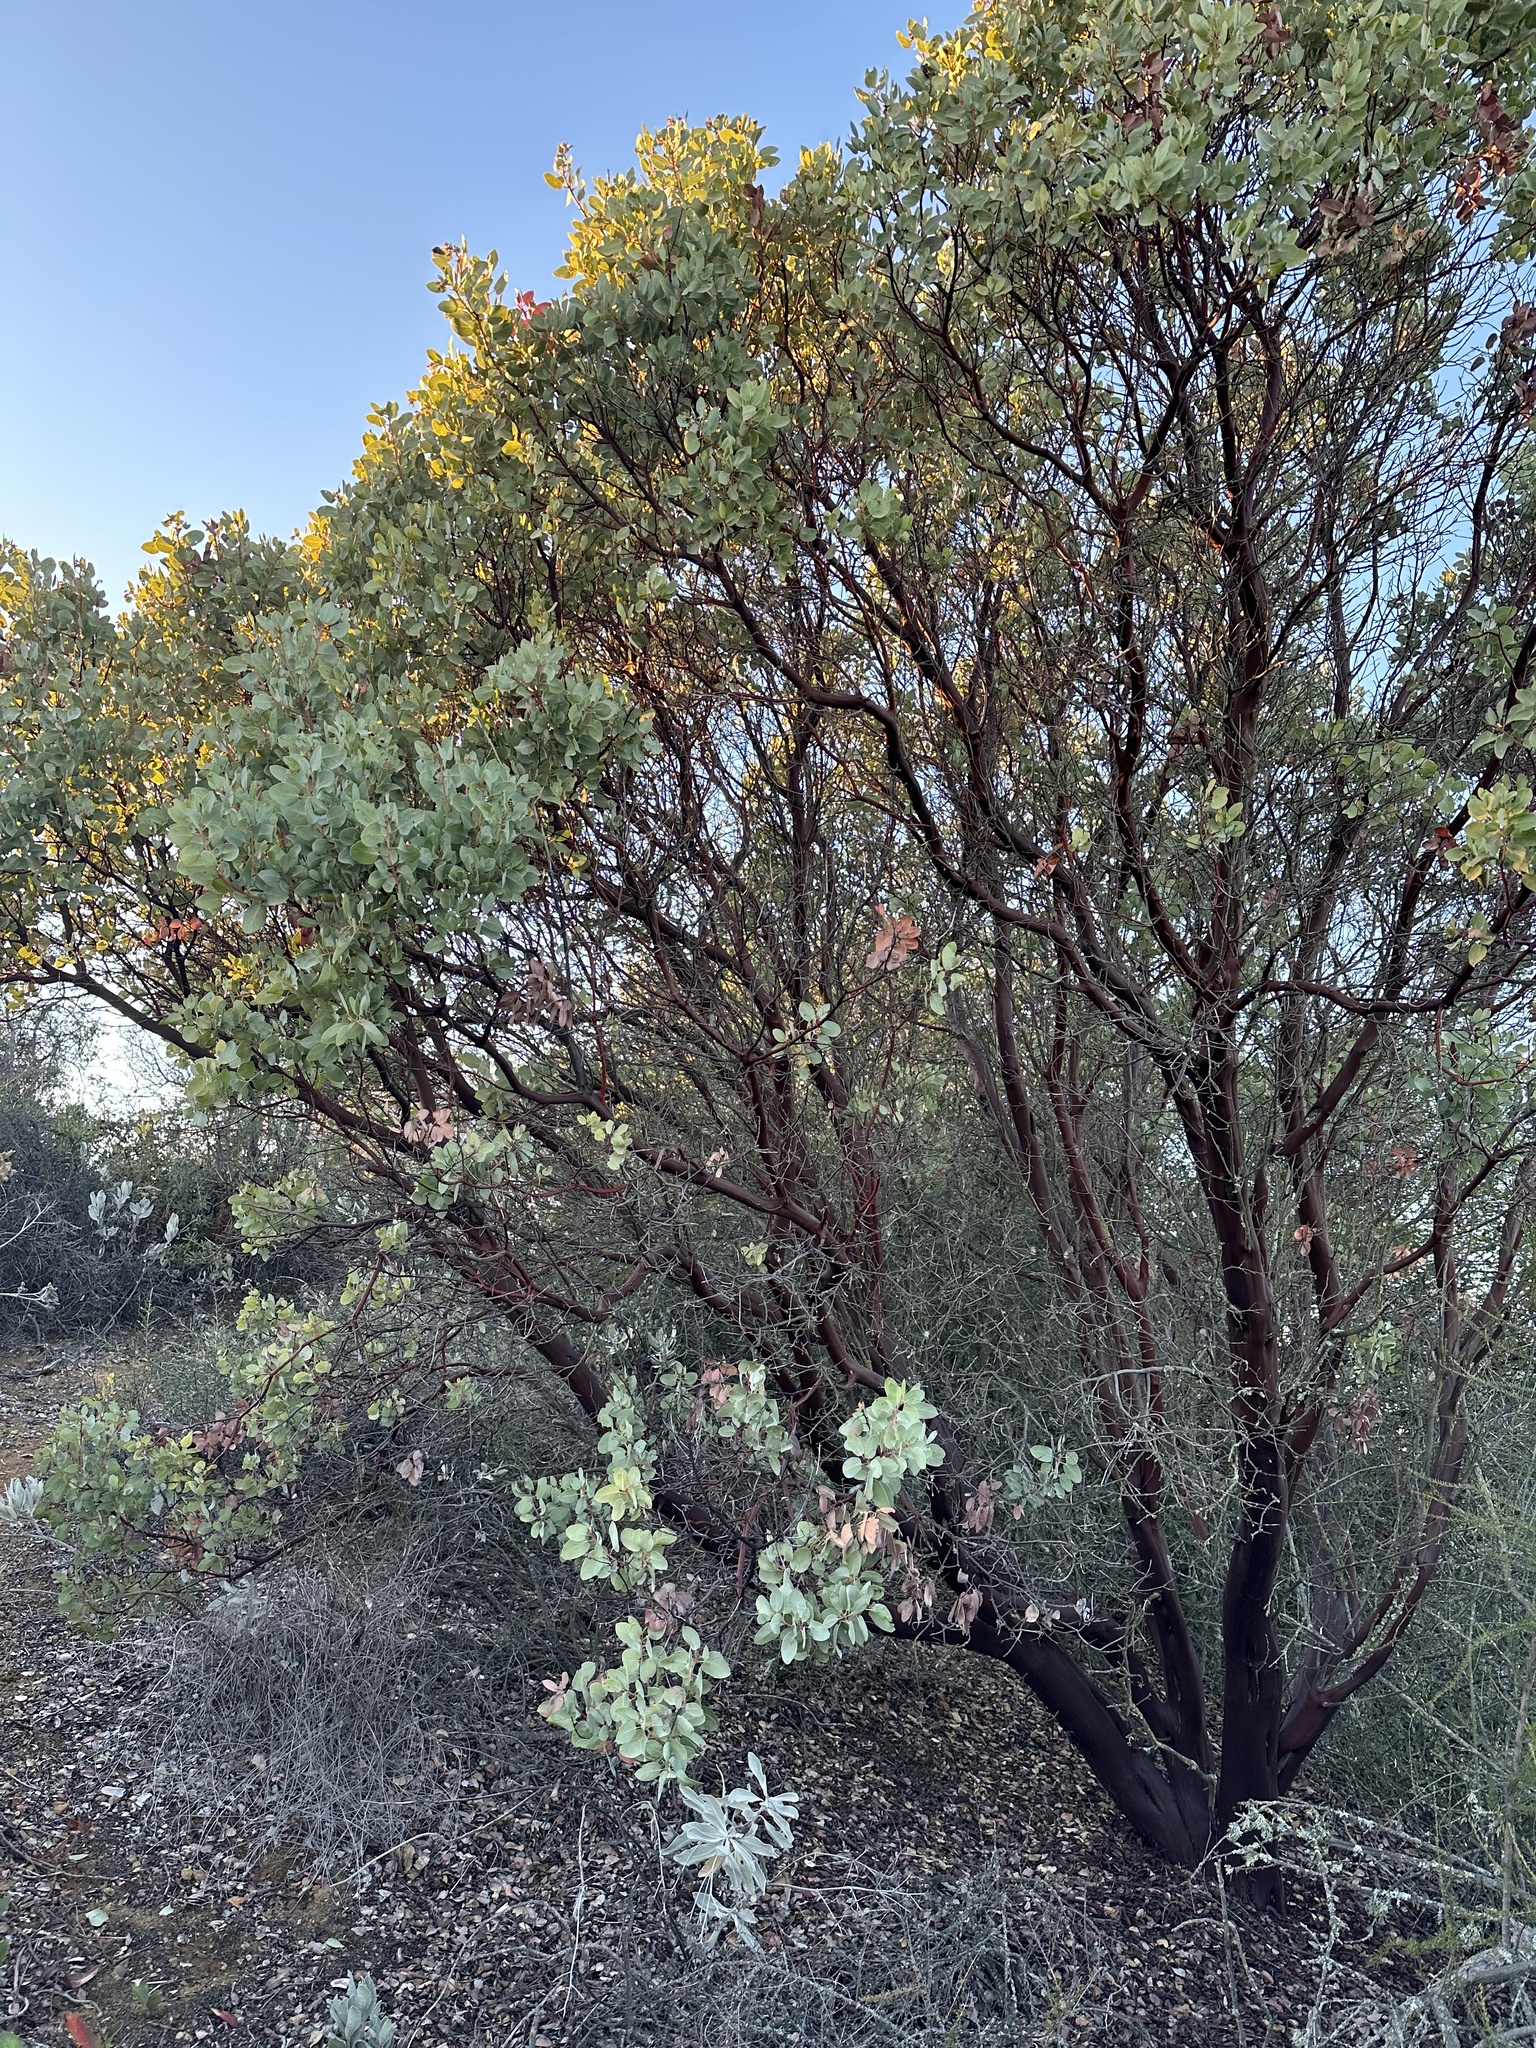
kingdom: Plantae
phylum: Tracheophyta
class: Magnoliopsida
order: Ericales
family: Ericaceae
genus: Arctostaphylos
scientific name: Arctostaphylos glauca
